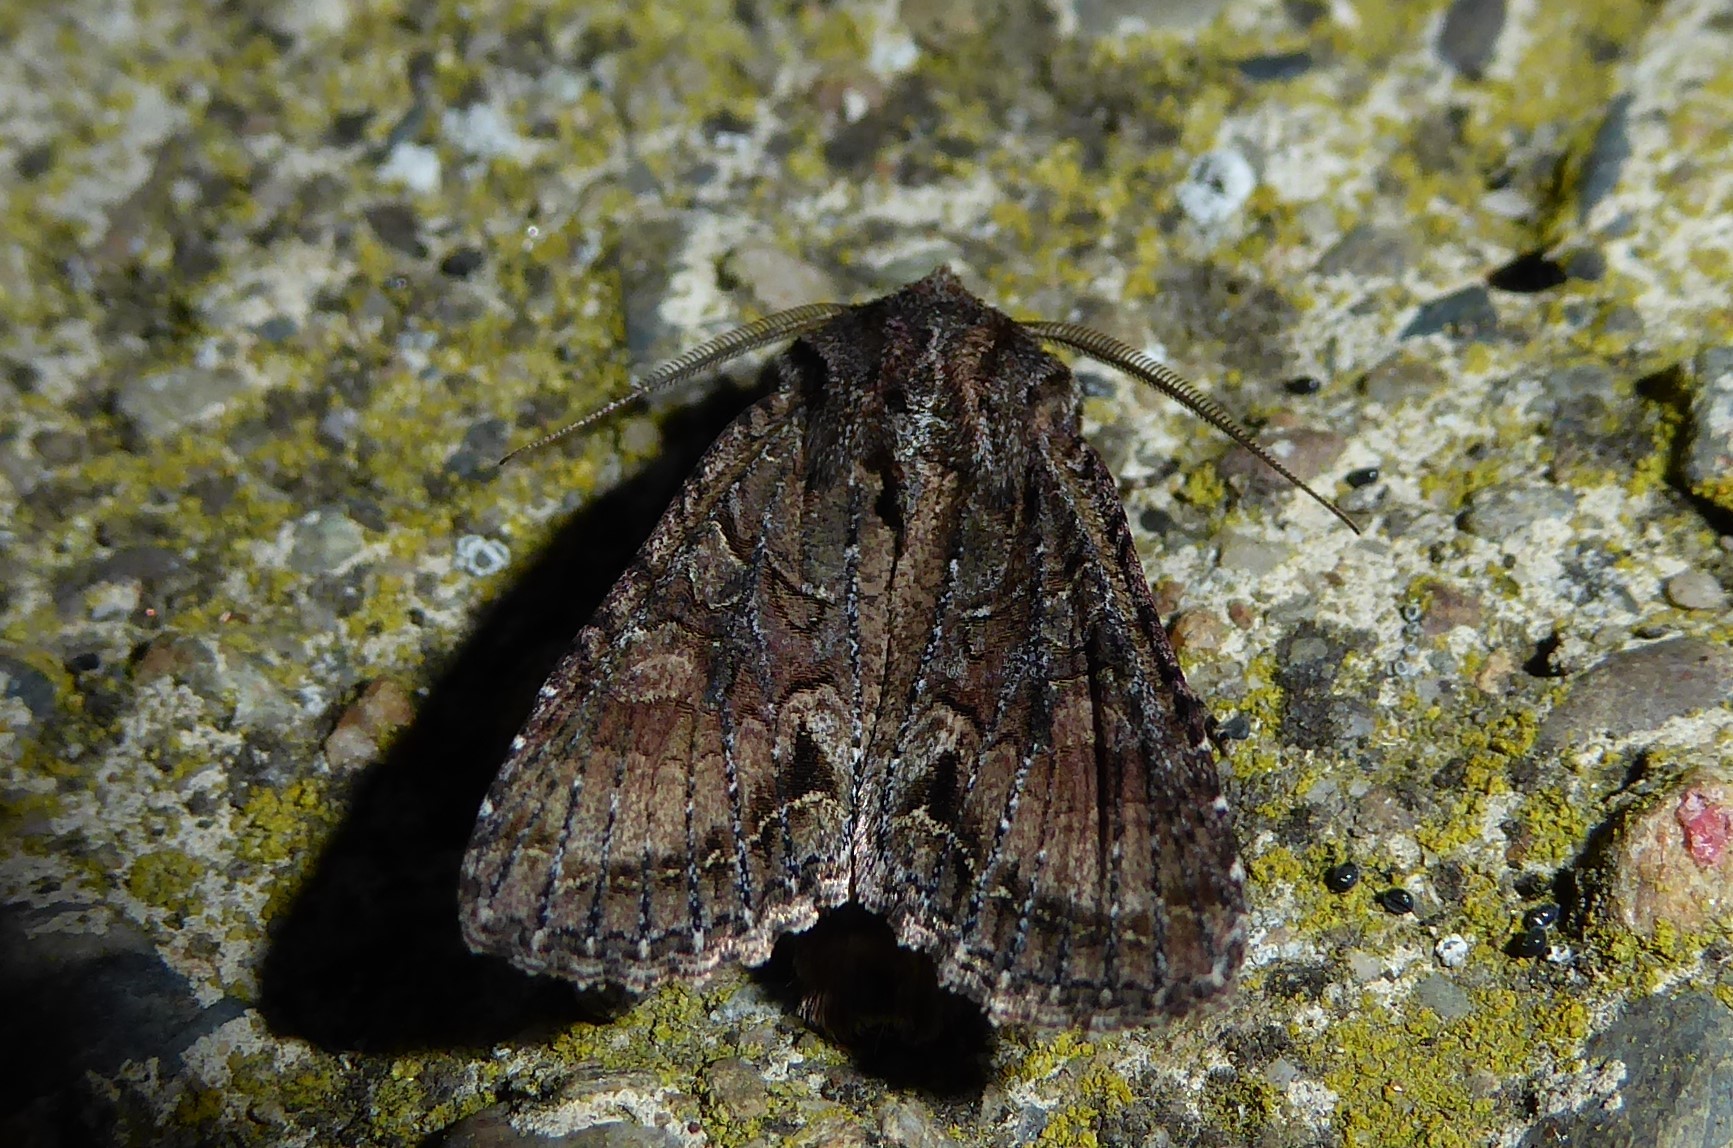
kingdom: Animalia
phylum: Arthropoda
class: Insecta
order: Lepidoptera
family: Noctuidae
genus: Ichneutica
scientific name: Ichneutica mutans
